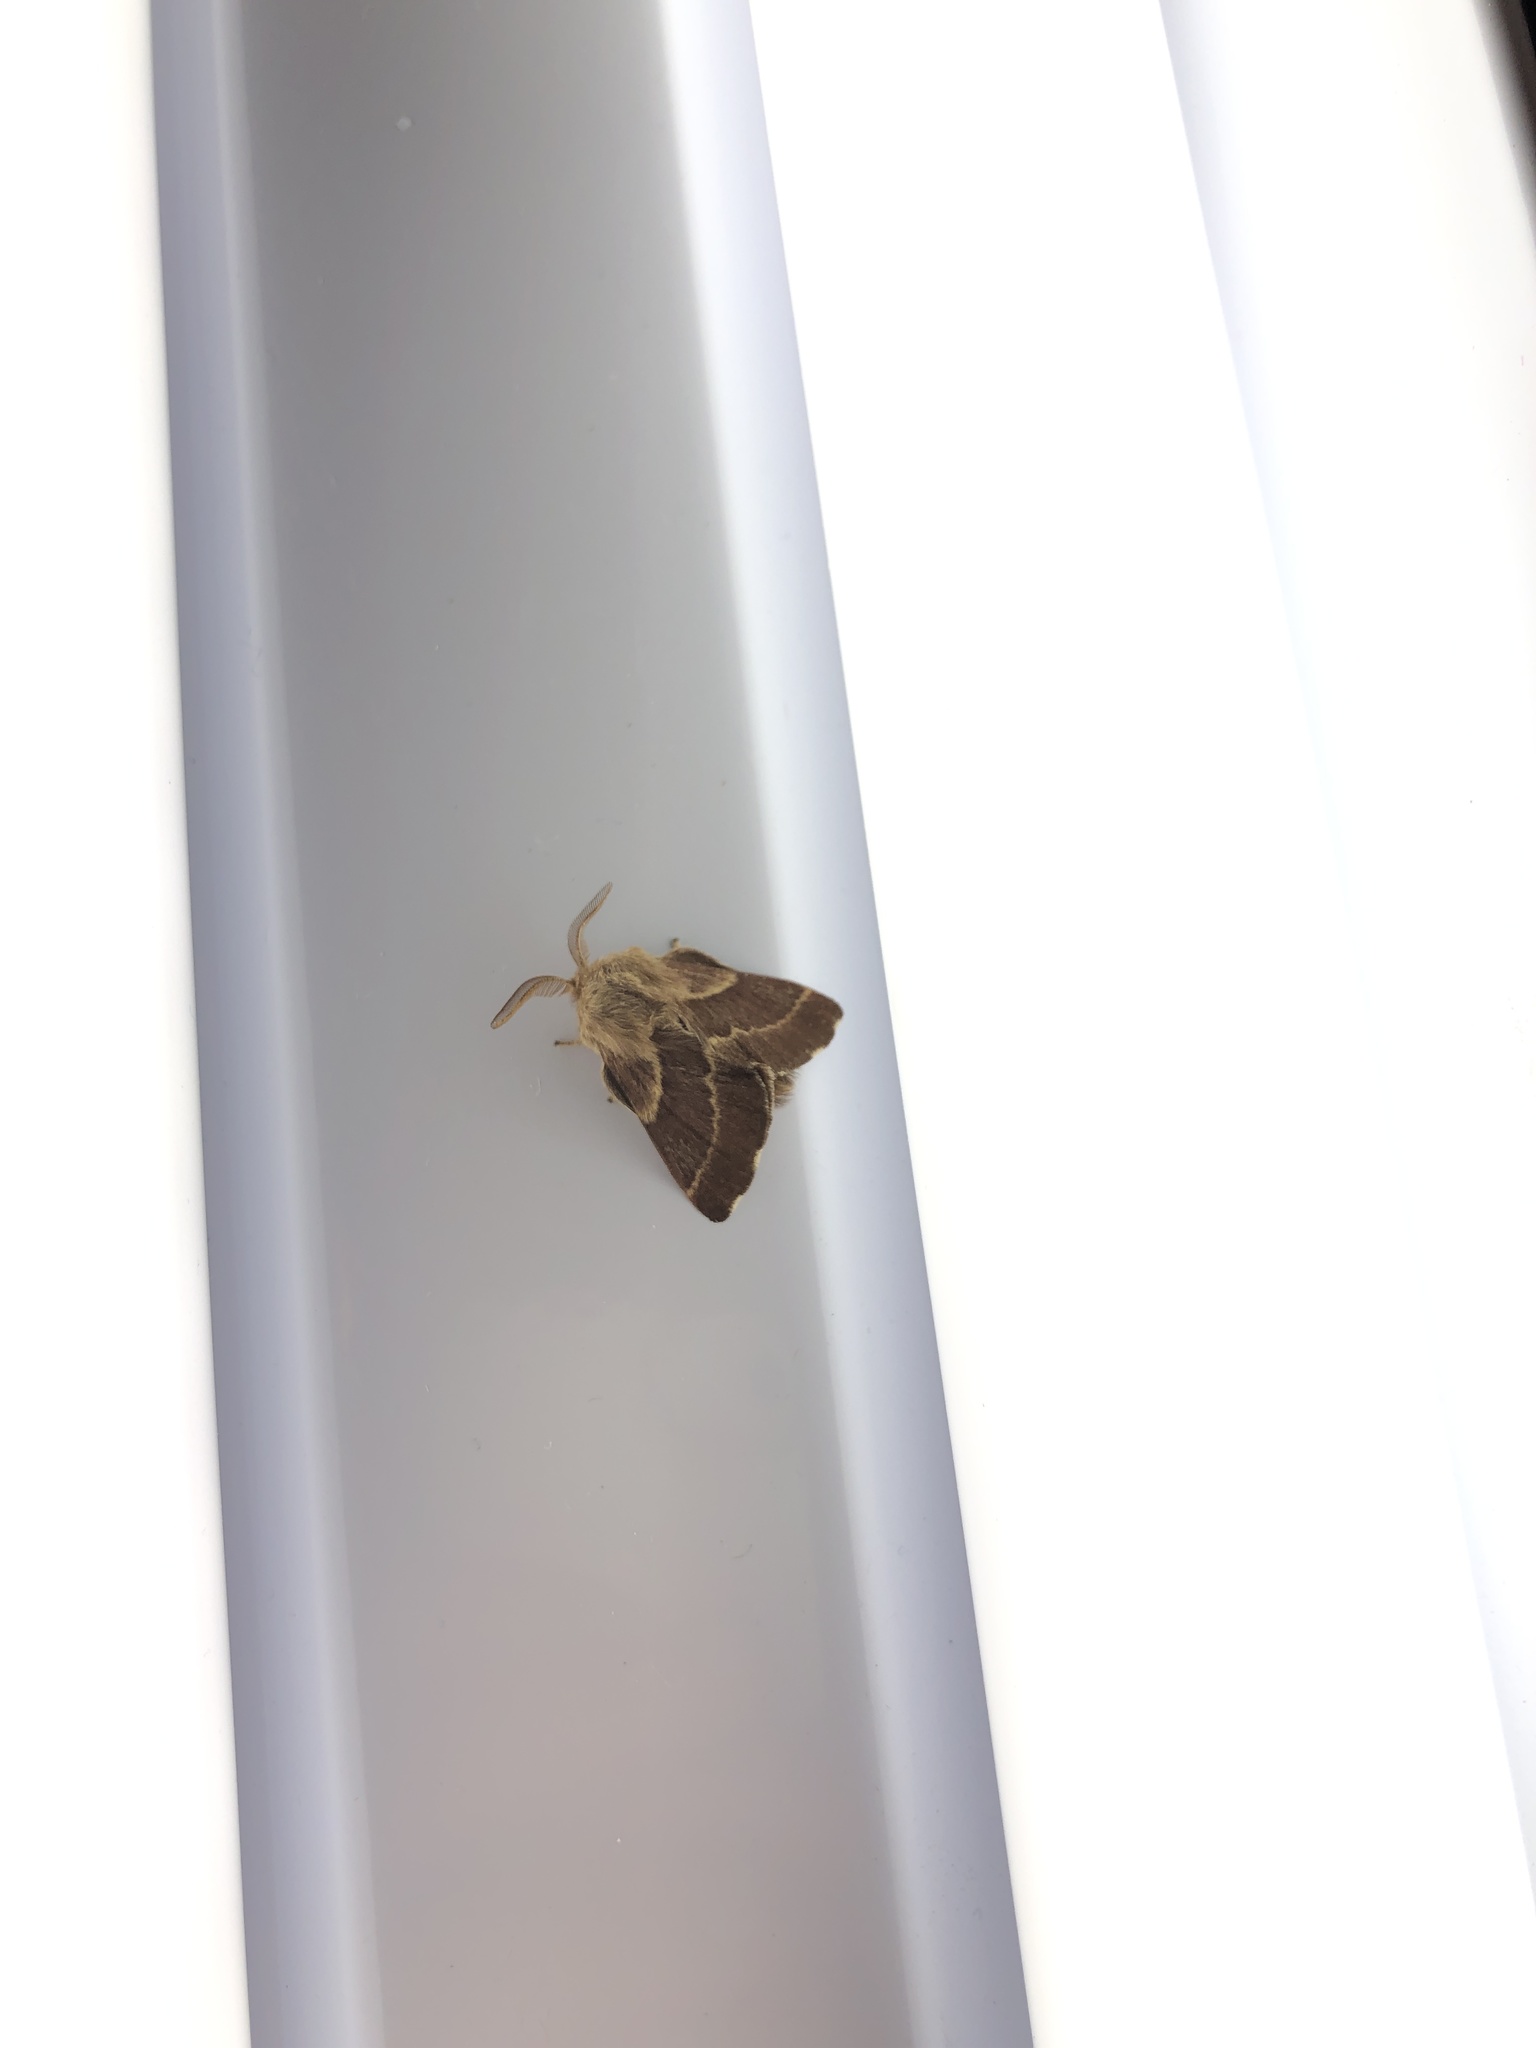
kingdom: Animalia
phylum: Arthropoda
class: Insecta
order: Lepidoptera
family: Lasiocampidae
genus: Malacosoma
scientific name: Malacosoma californica
